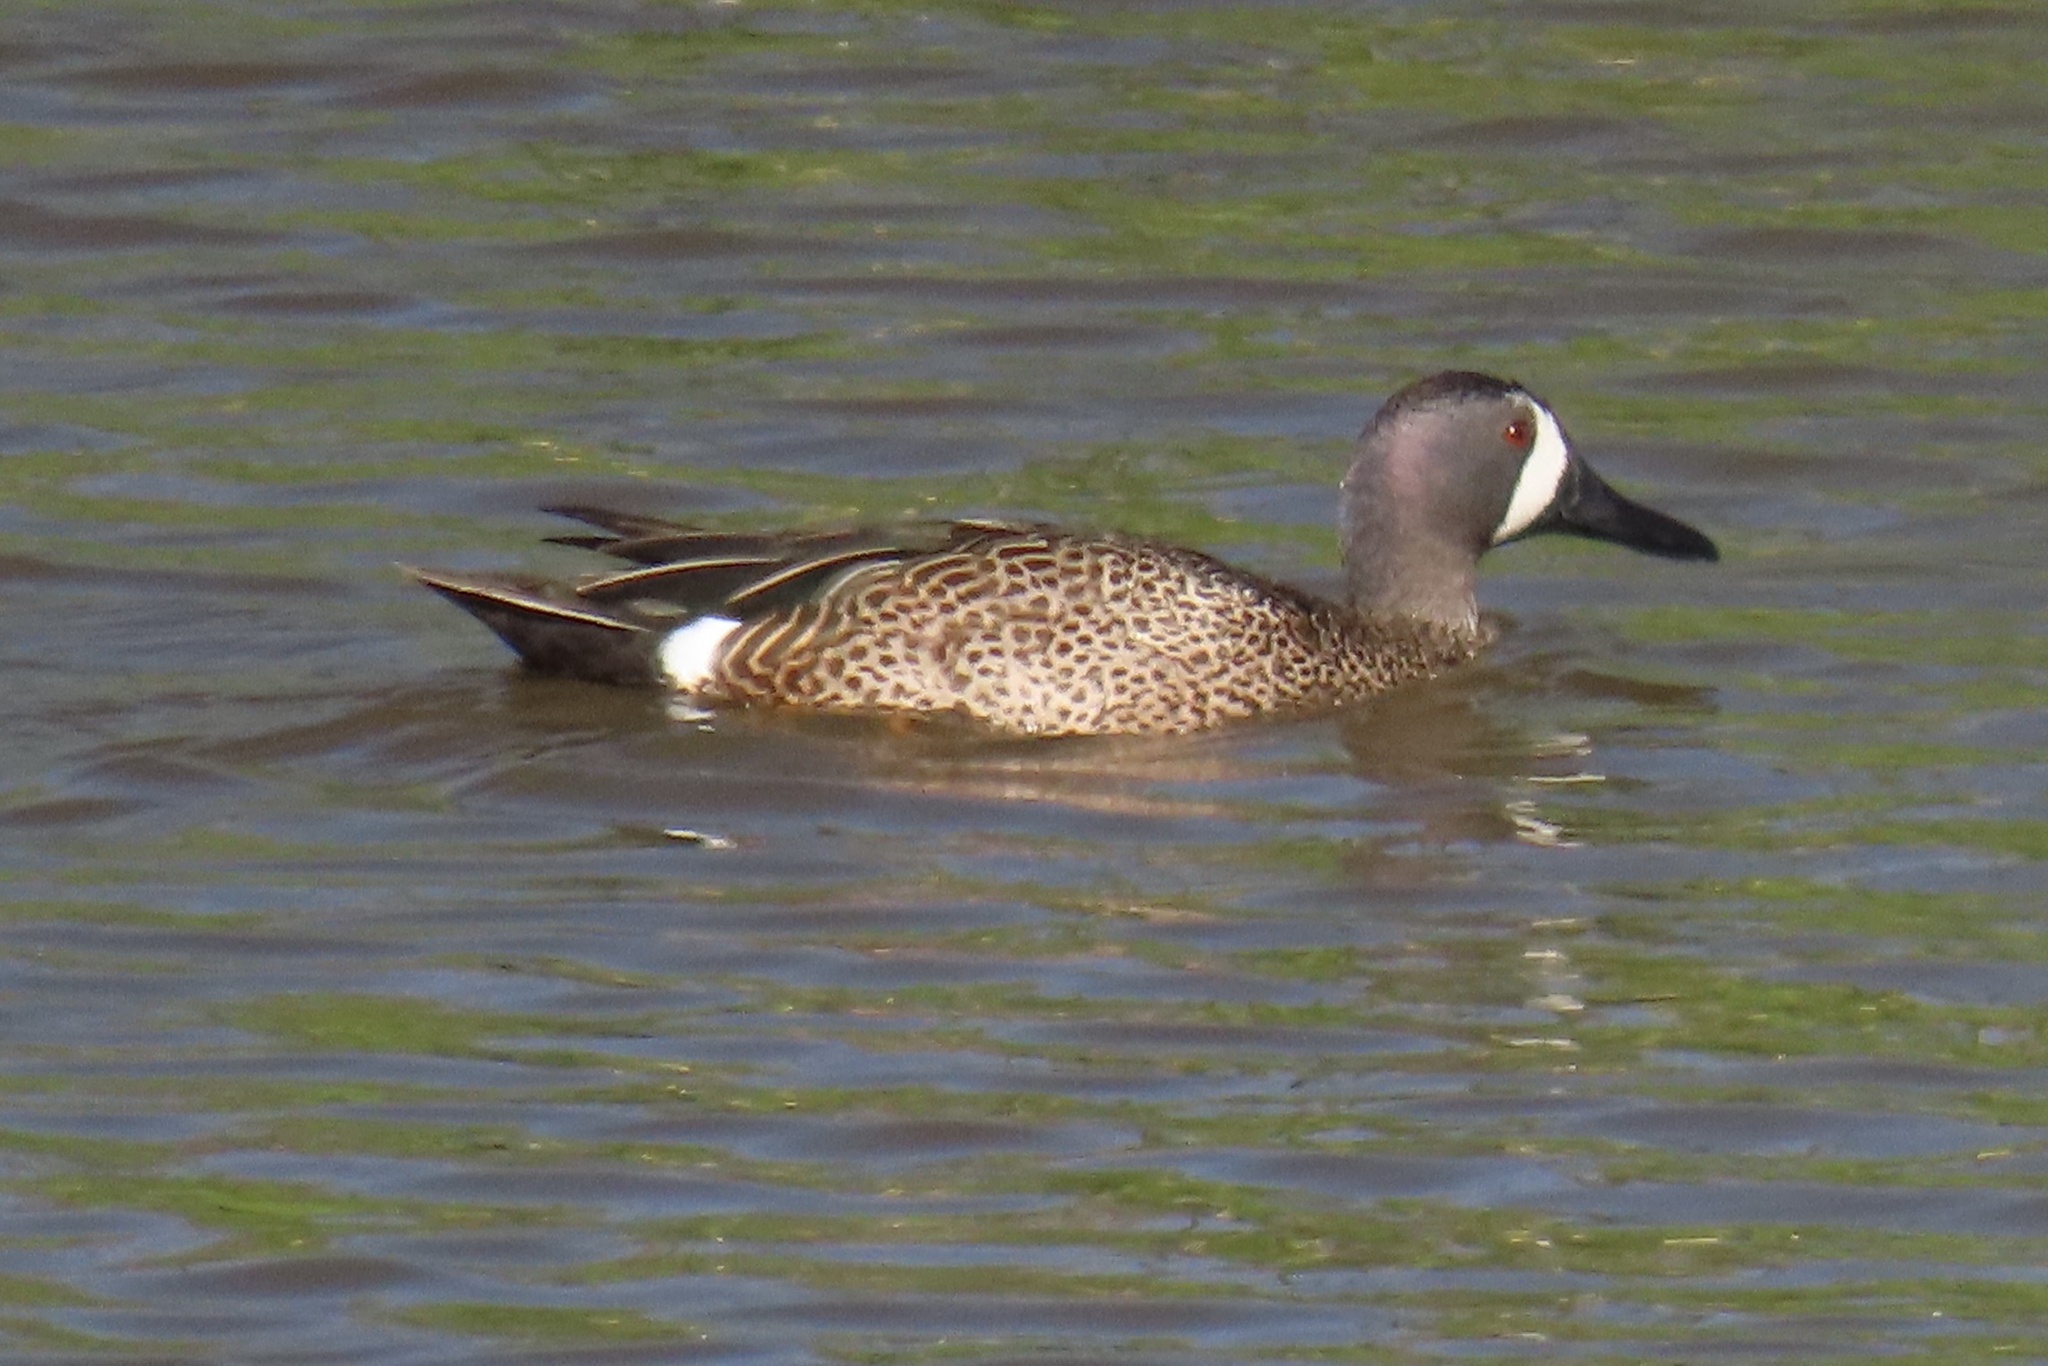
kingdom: Animalia
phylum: Chordata
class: Aves
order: Anseriformes
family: Anatidae
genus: Spatula
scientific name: Spatula discors
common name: Blue-winged teal
